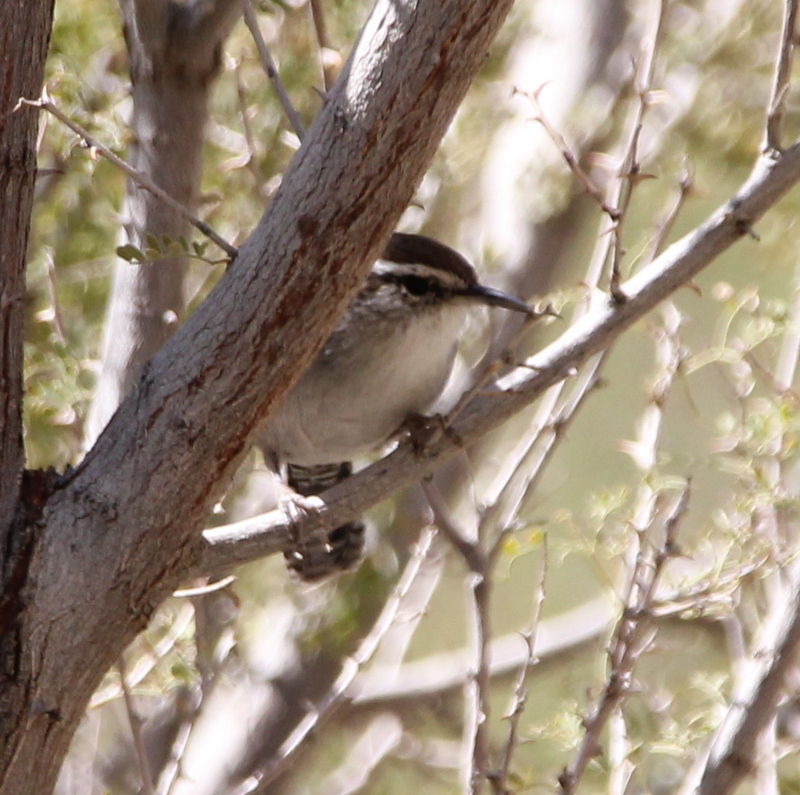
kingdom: Animalia
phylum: Chordata
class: Aves
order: Passeriformes
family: Troglodytidae
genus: Thryomanes
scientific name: Thryomanes bewickii
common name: Bewick's wren
